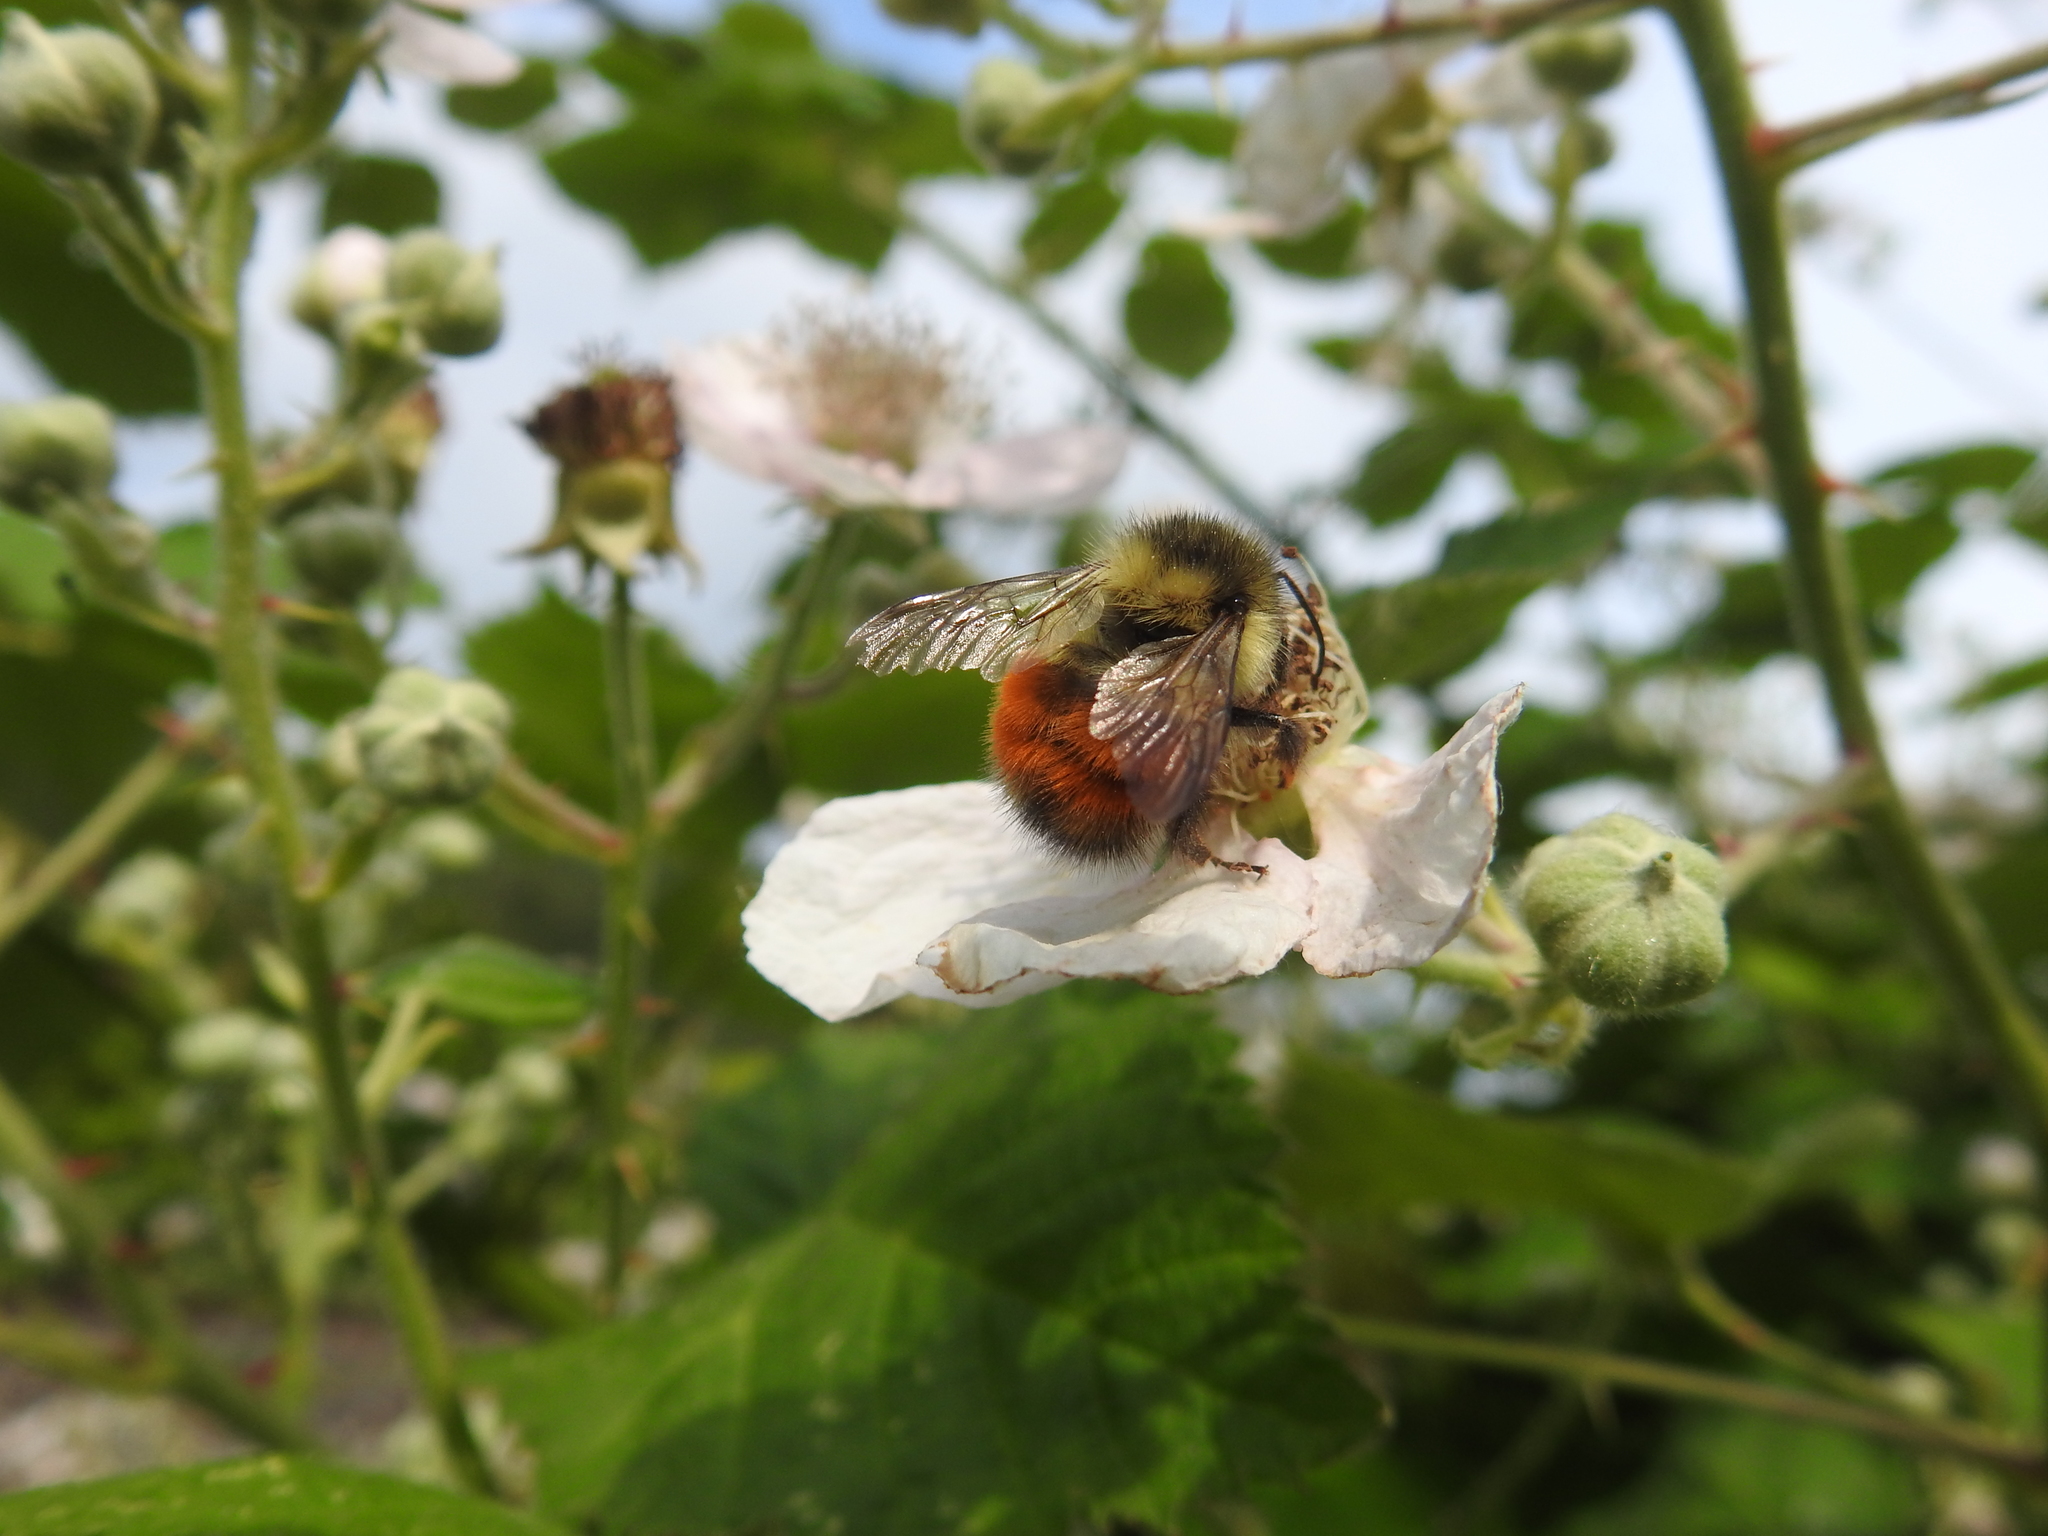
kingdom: Animalia
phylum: Arthropoda
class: Insecta
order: Hymenoptera
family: Apidae
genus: Bombus
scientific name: Bombus melanopygus
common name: Black tail bumble bee
